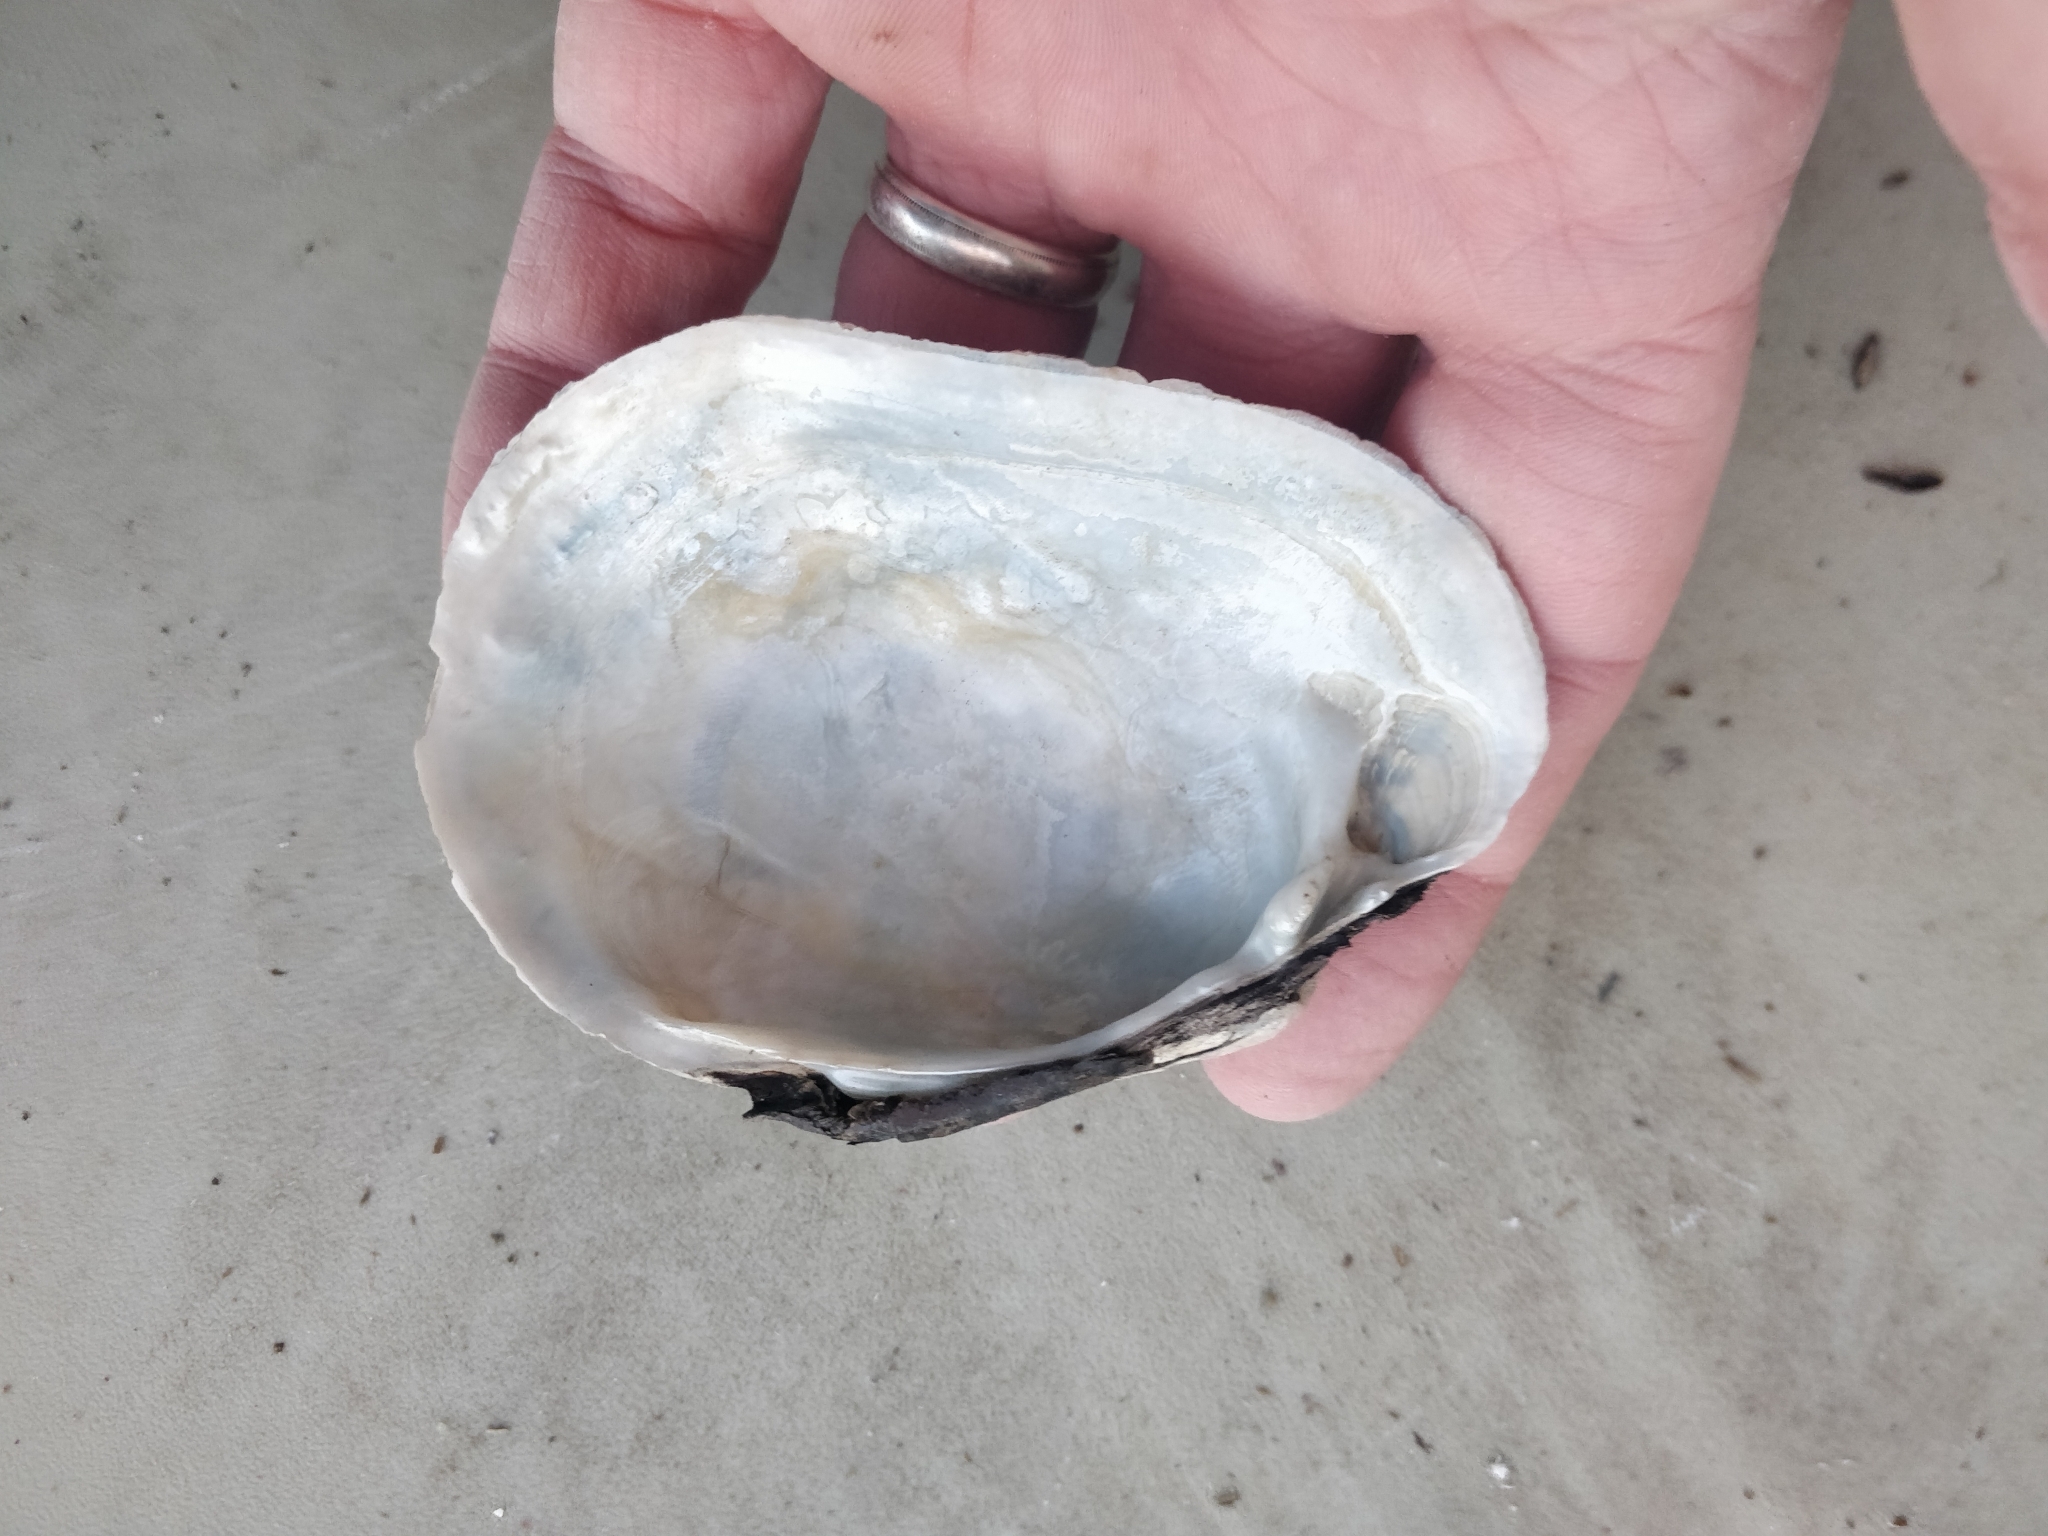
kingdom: Animalia
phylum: Mollusca
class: Bivalvia
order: Unionida
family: Unionidae
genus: Lampsilis
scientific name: Lampsilis cardium
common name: Plain pocketbook
